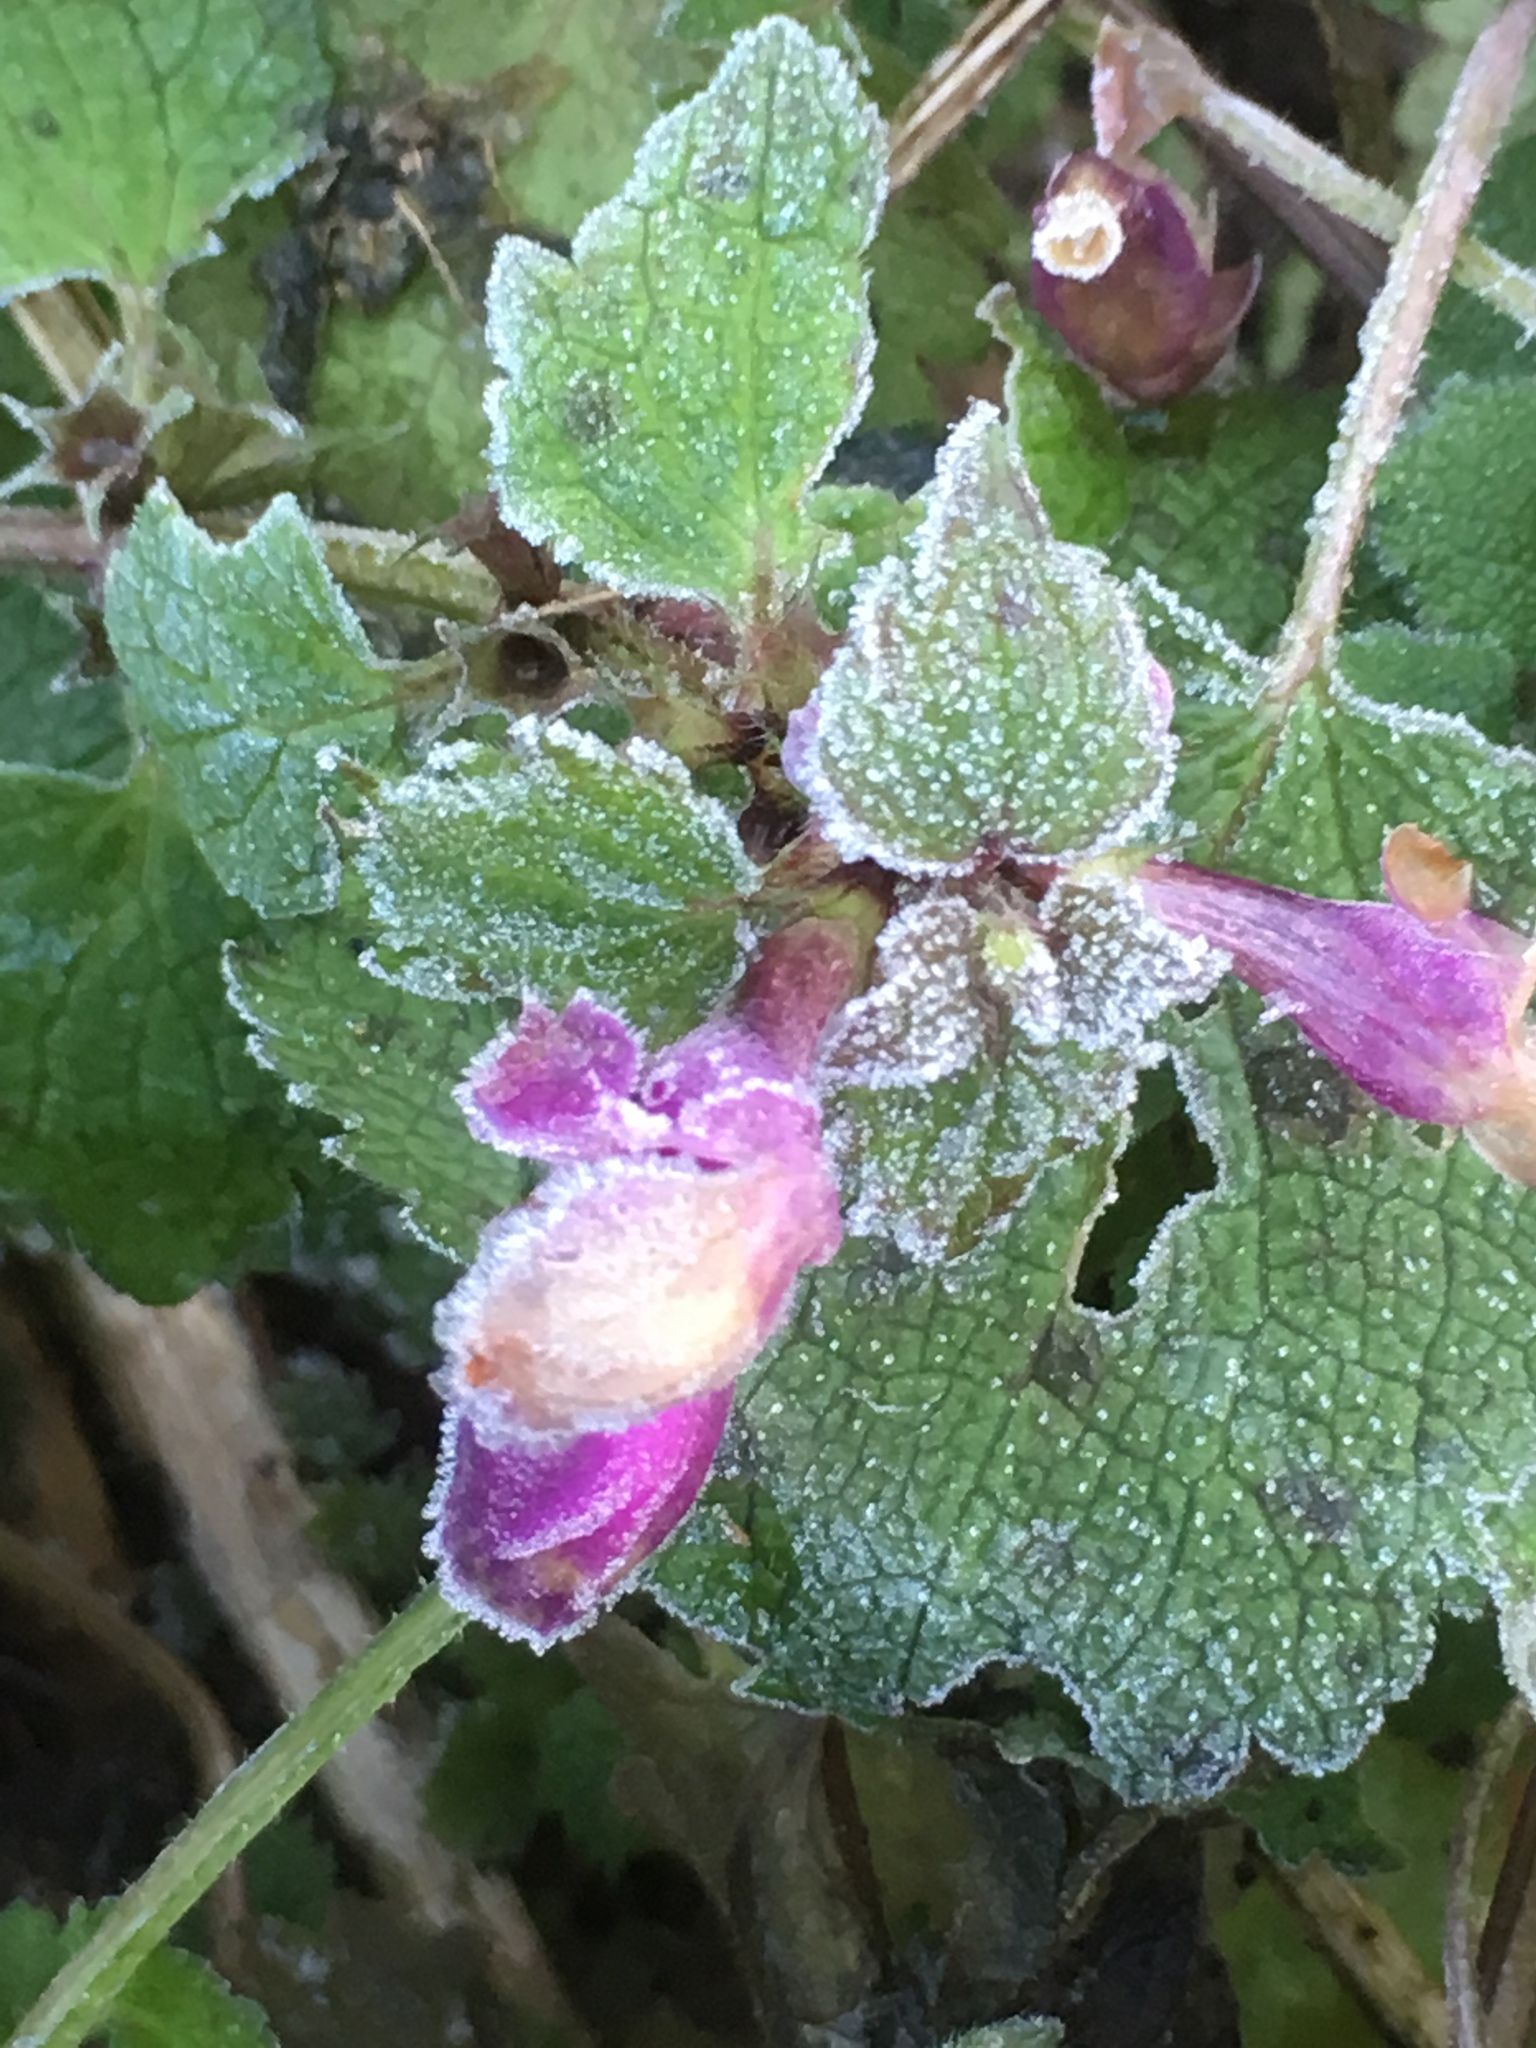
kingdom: Plantae
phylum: Tracheophyta
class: Magnoliopsida
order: Lamiales
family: Lamiaceae
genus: Lamium
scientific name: Lamium purpureum
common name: Red dead-nettle
